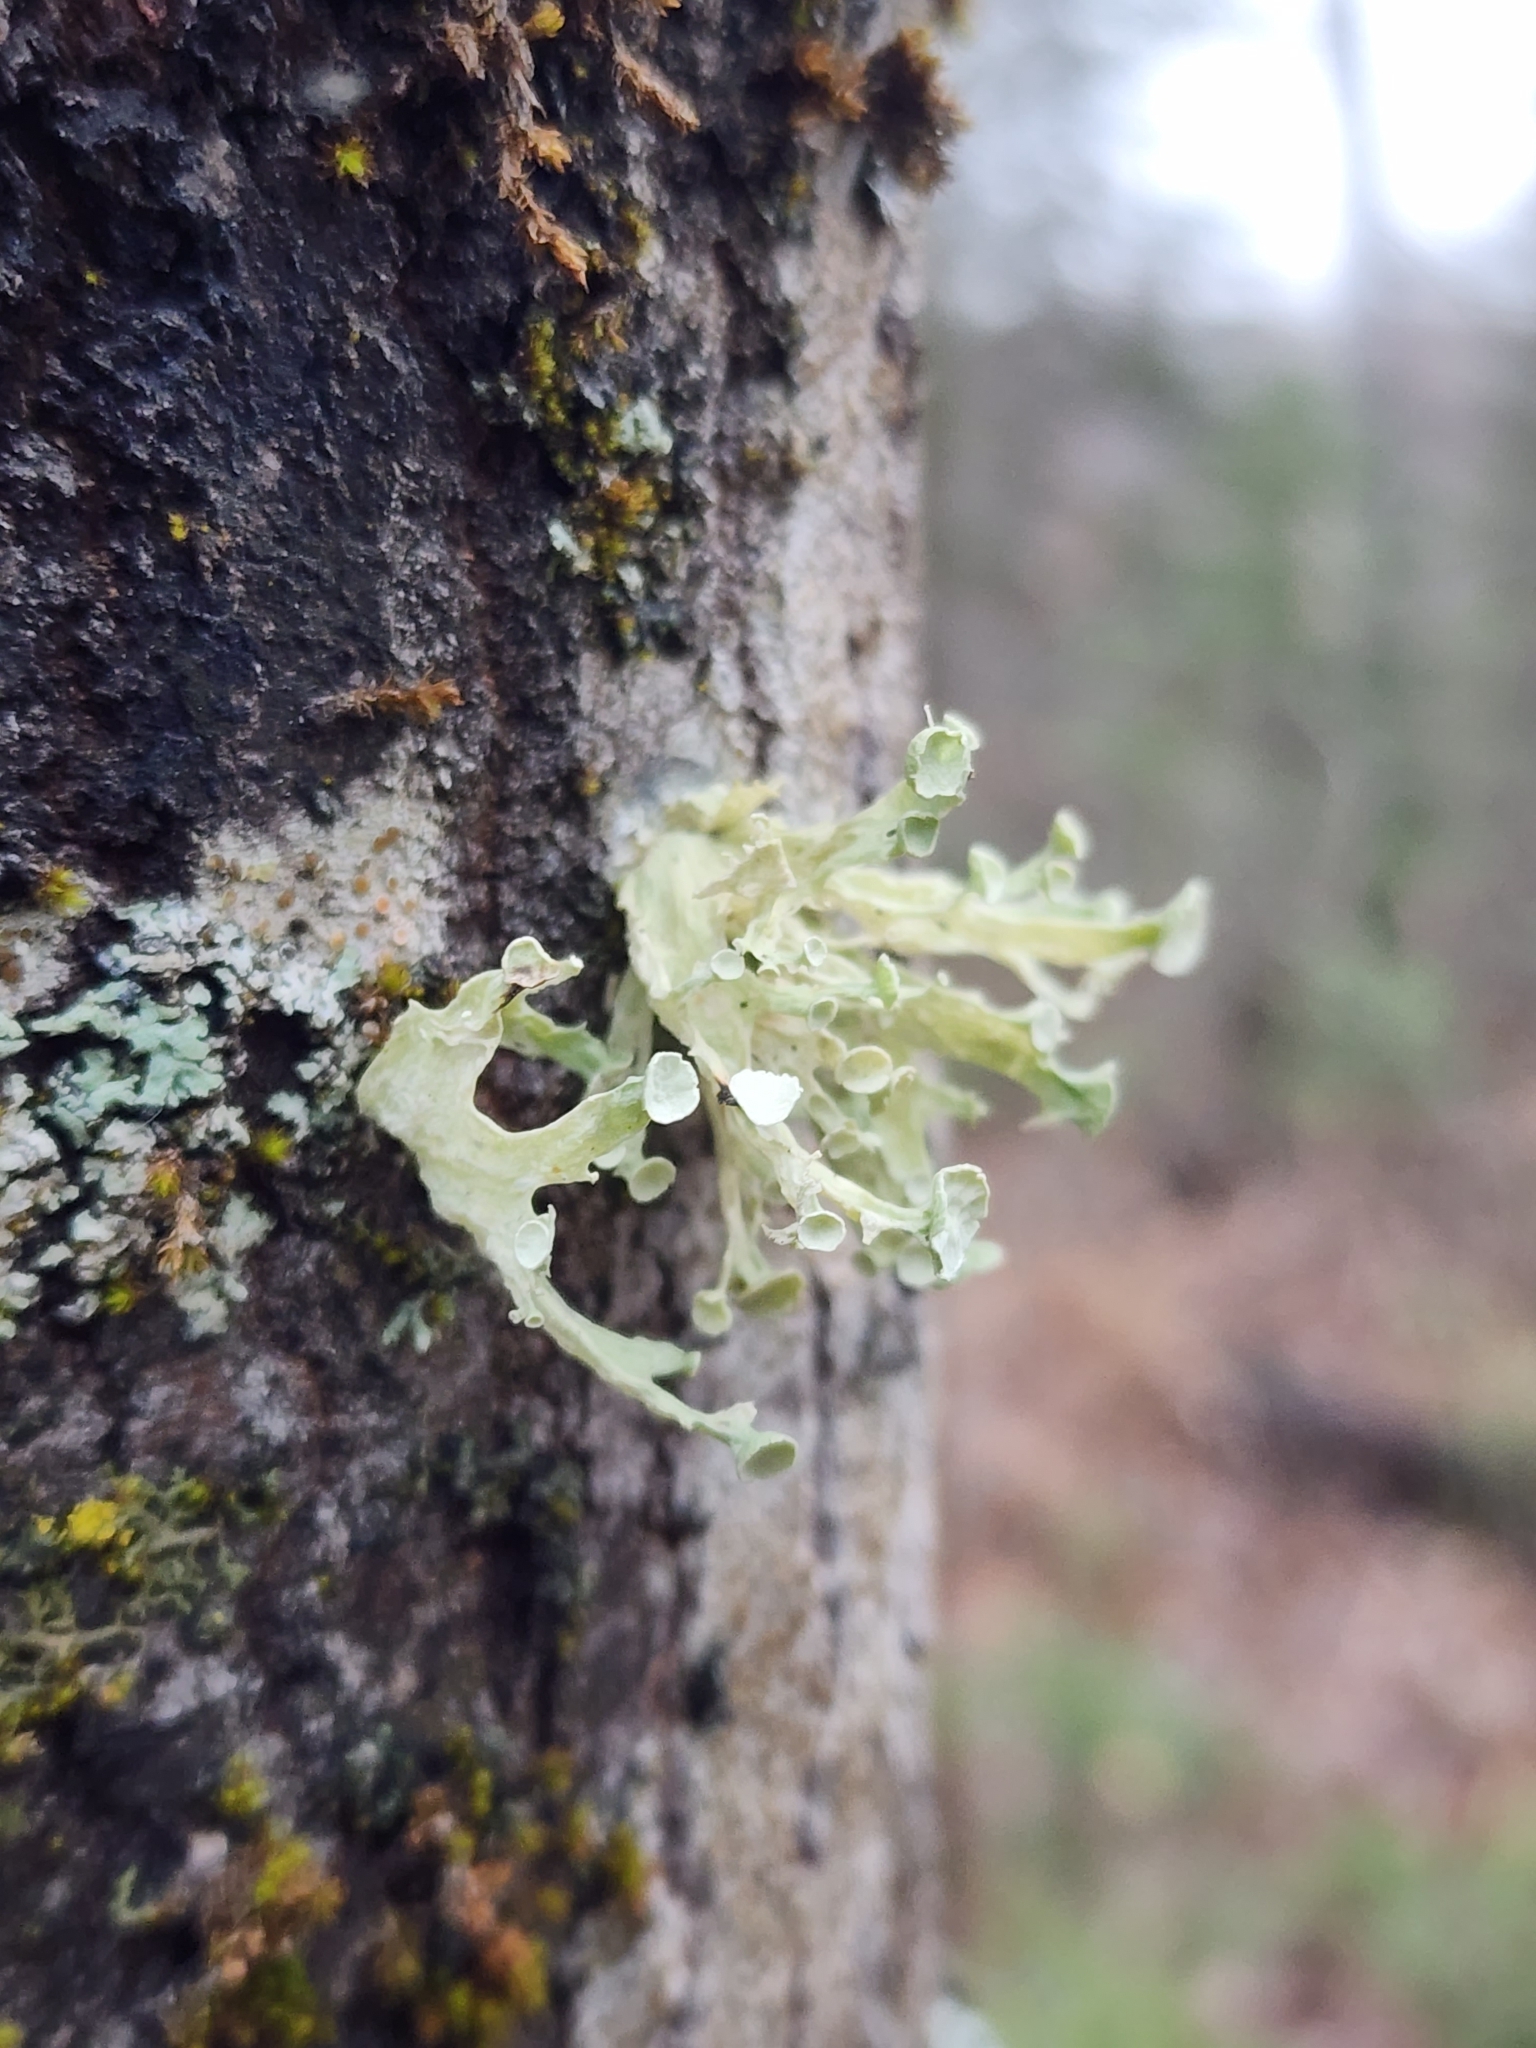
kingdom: Fungi
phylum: Ascomycota
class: Lecanoromycetes
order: Lecanorales
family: Ramalinaceae
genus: Ramalina
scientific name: Ramalina americana
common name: Sinewed bush lichen
